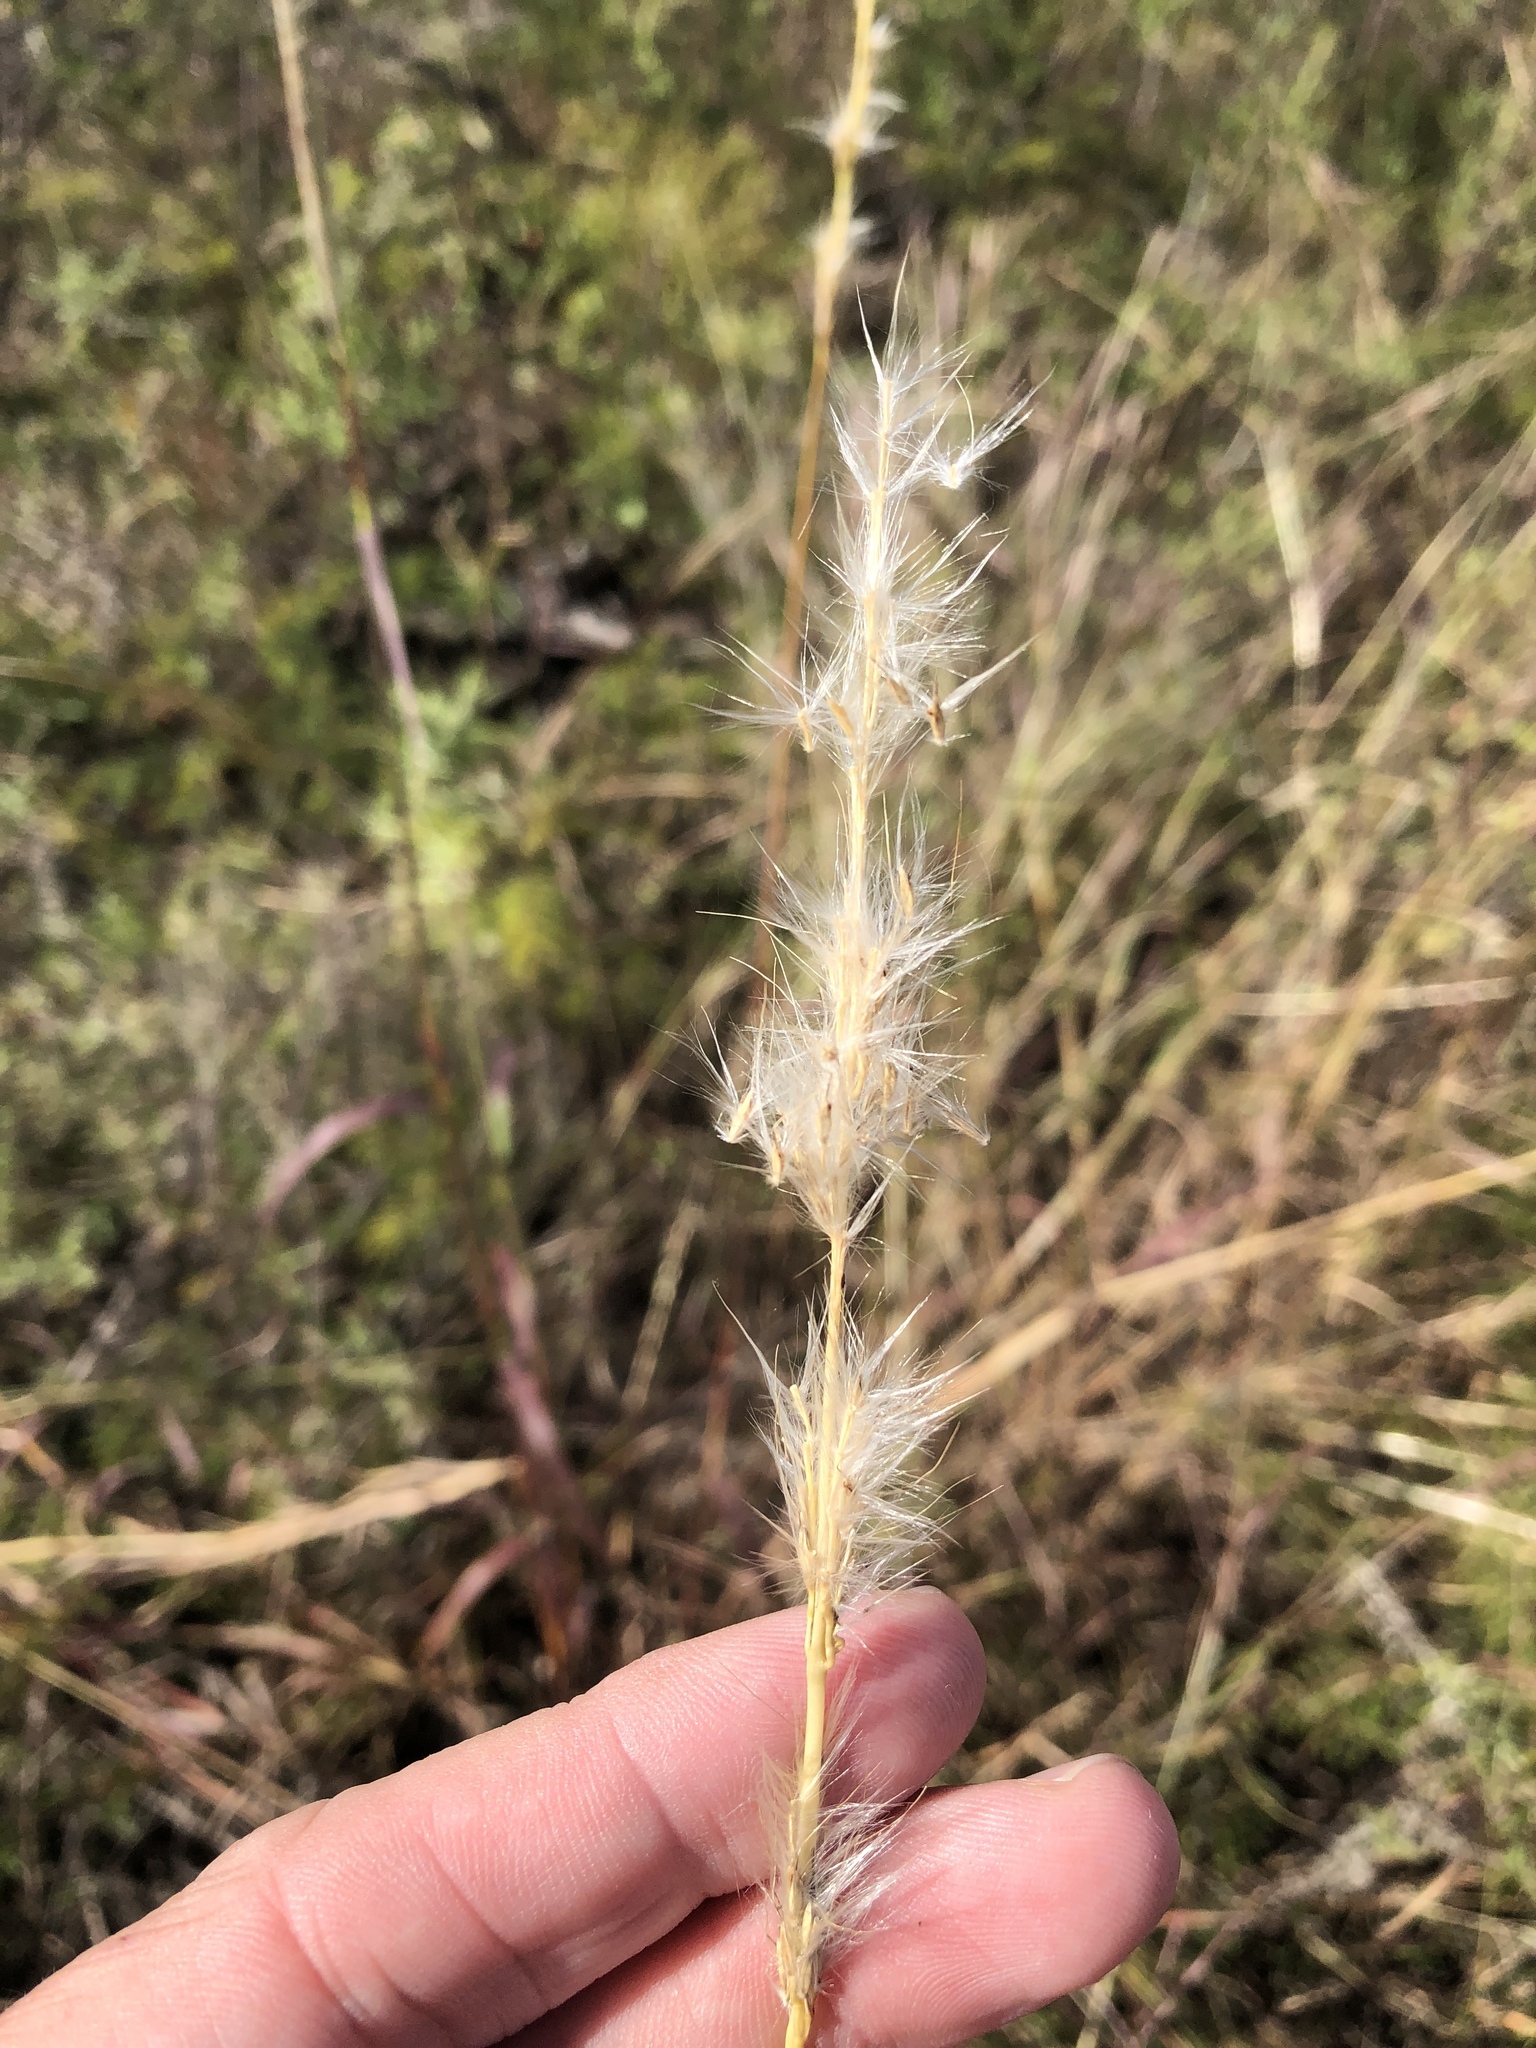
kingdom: Plantae
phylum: Tracheophyta
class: Liliopsida
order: Poales
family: Poaceae
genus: Bothriochloa
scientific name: Bothriochloa torreyana
